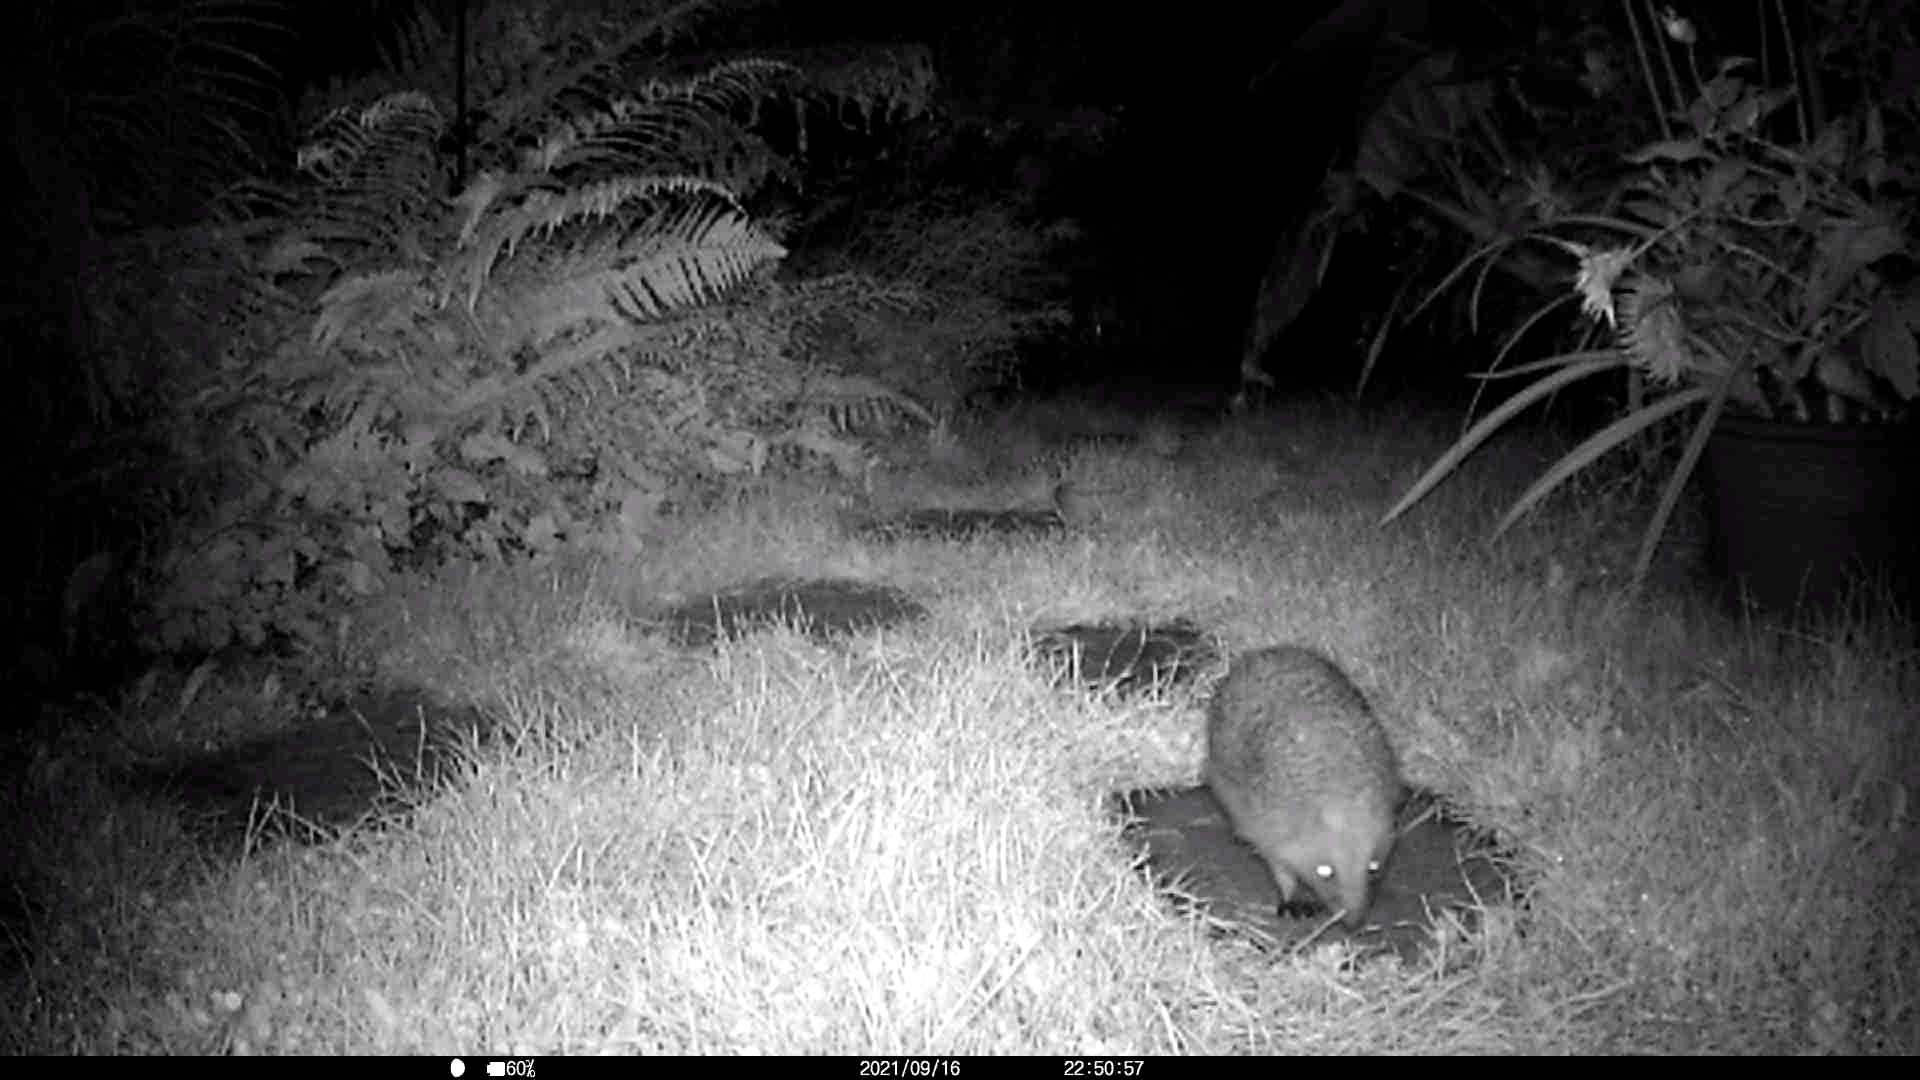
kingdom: Animalia
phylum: Chordata
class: Mammalia
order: Erinaceomorpha
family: Erinaceidae
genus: Erinaceus
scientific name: Erinaceus europaeus
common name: West european hedgehog
